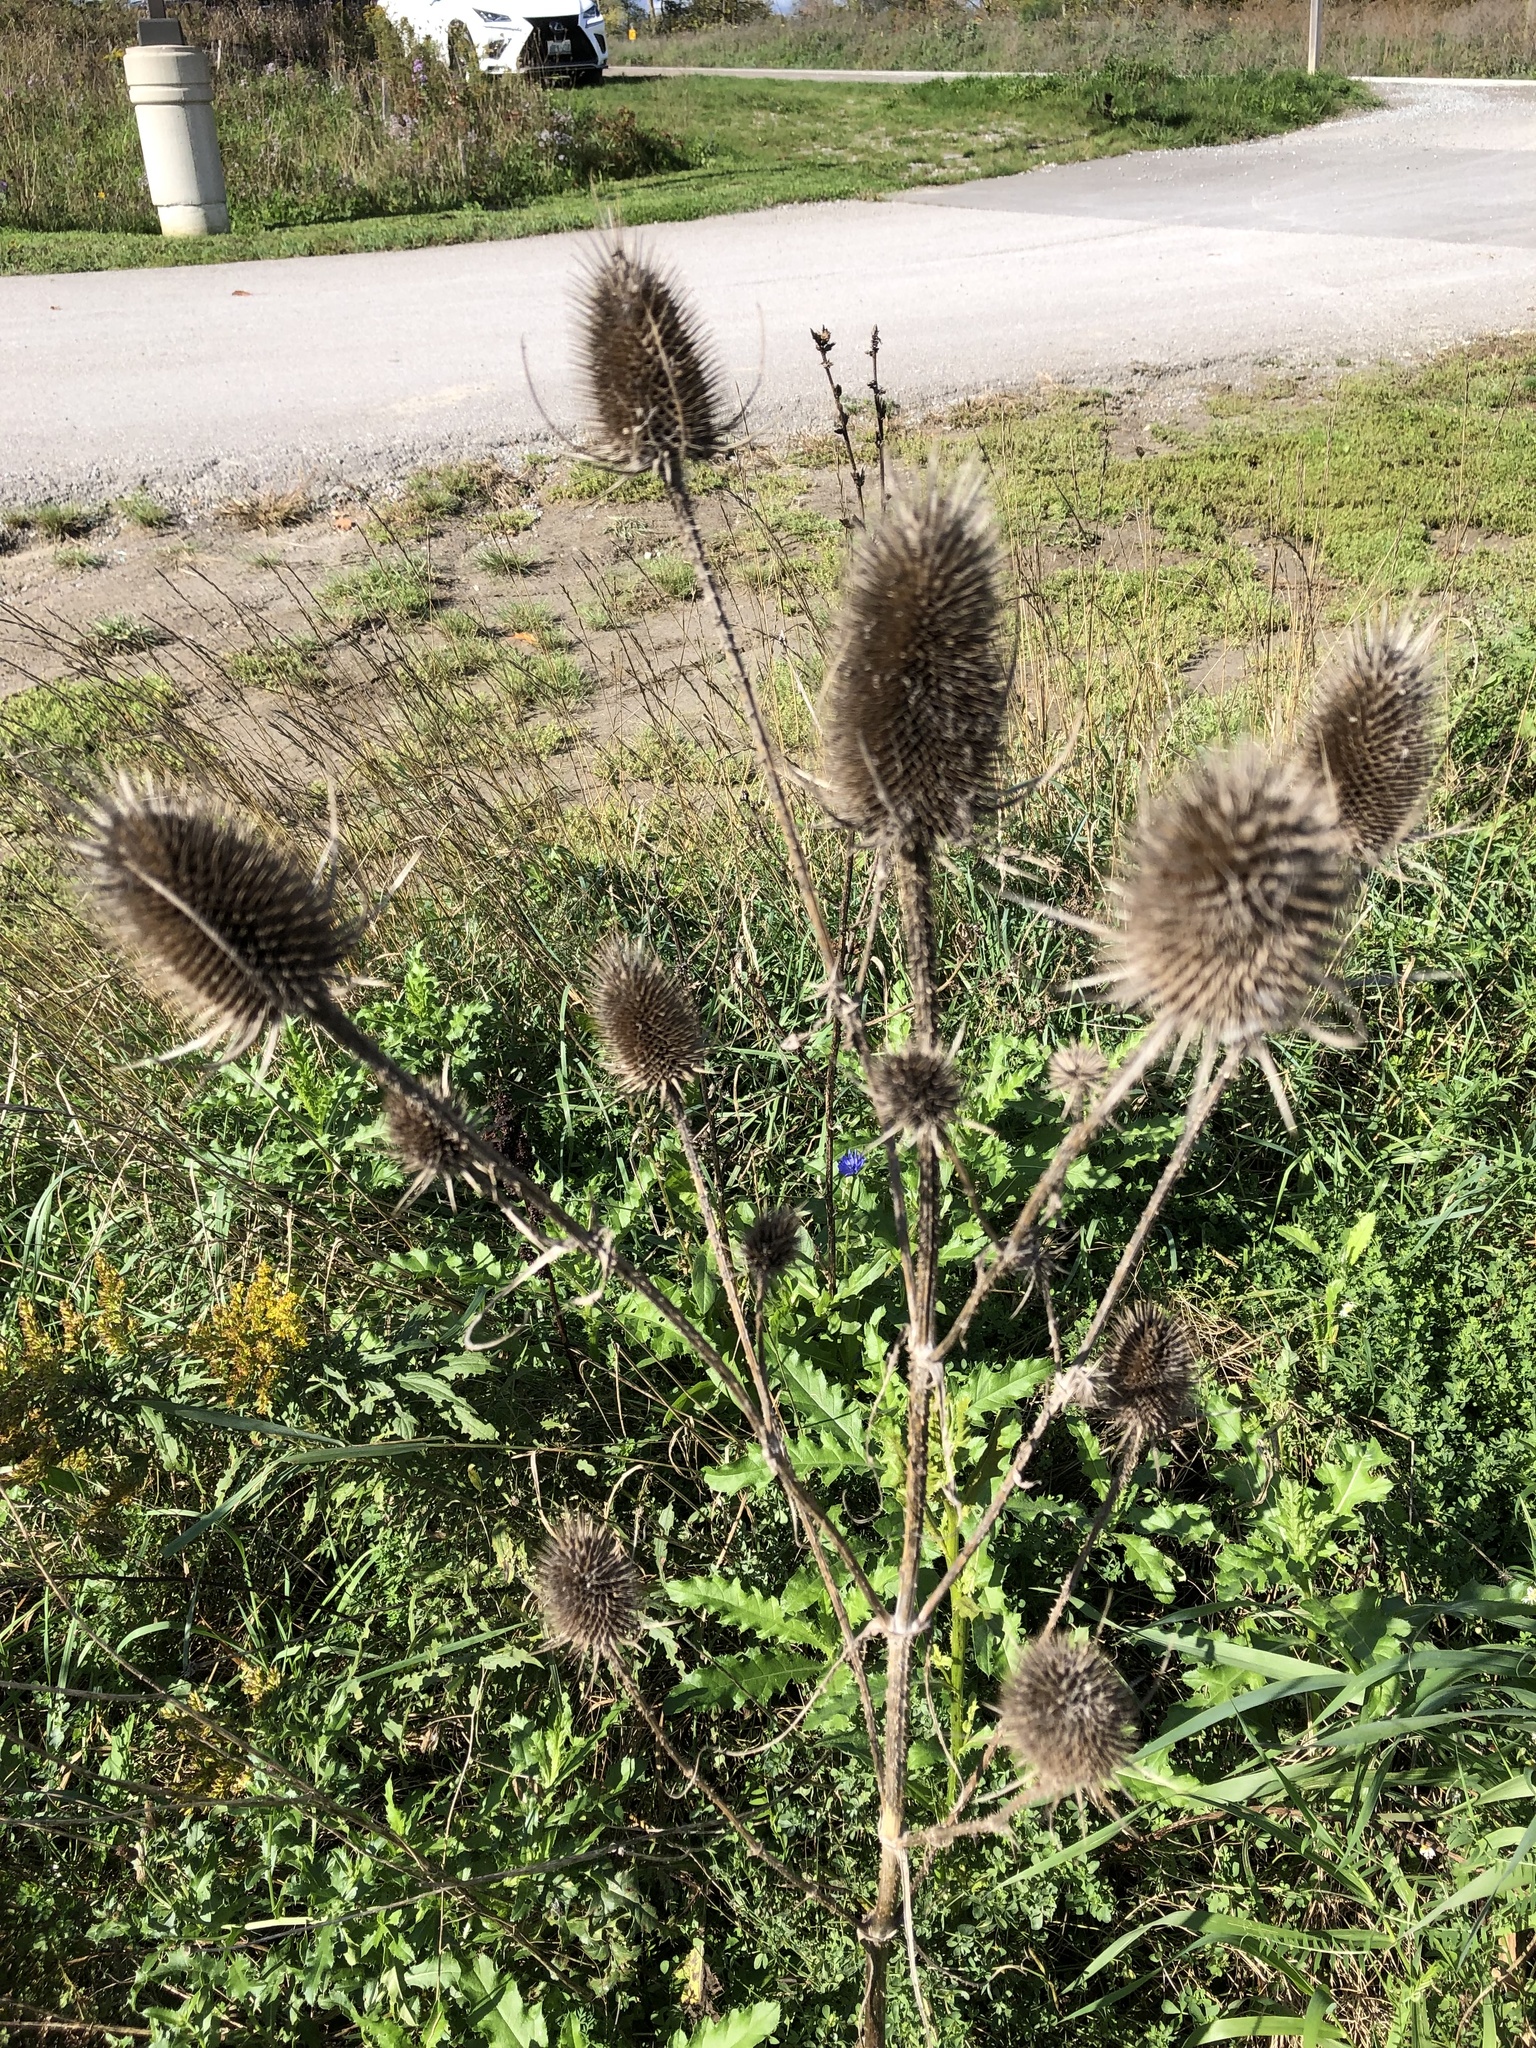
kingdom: Plantae
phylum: Tracheophyta
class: Magnoliopsida
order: Dipsacales
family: Caprifoliaceae
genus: Dipsacus
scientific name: Dipsacus fullonum
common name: Teasel
